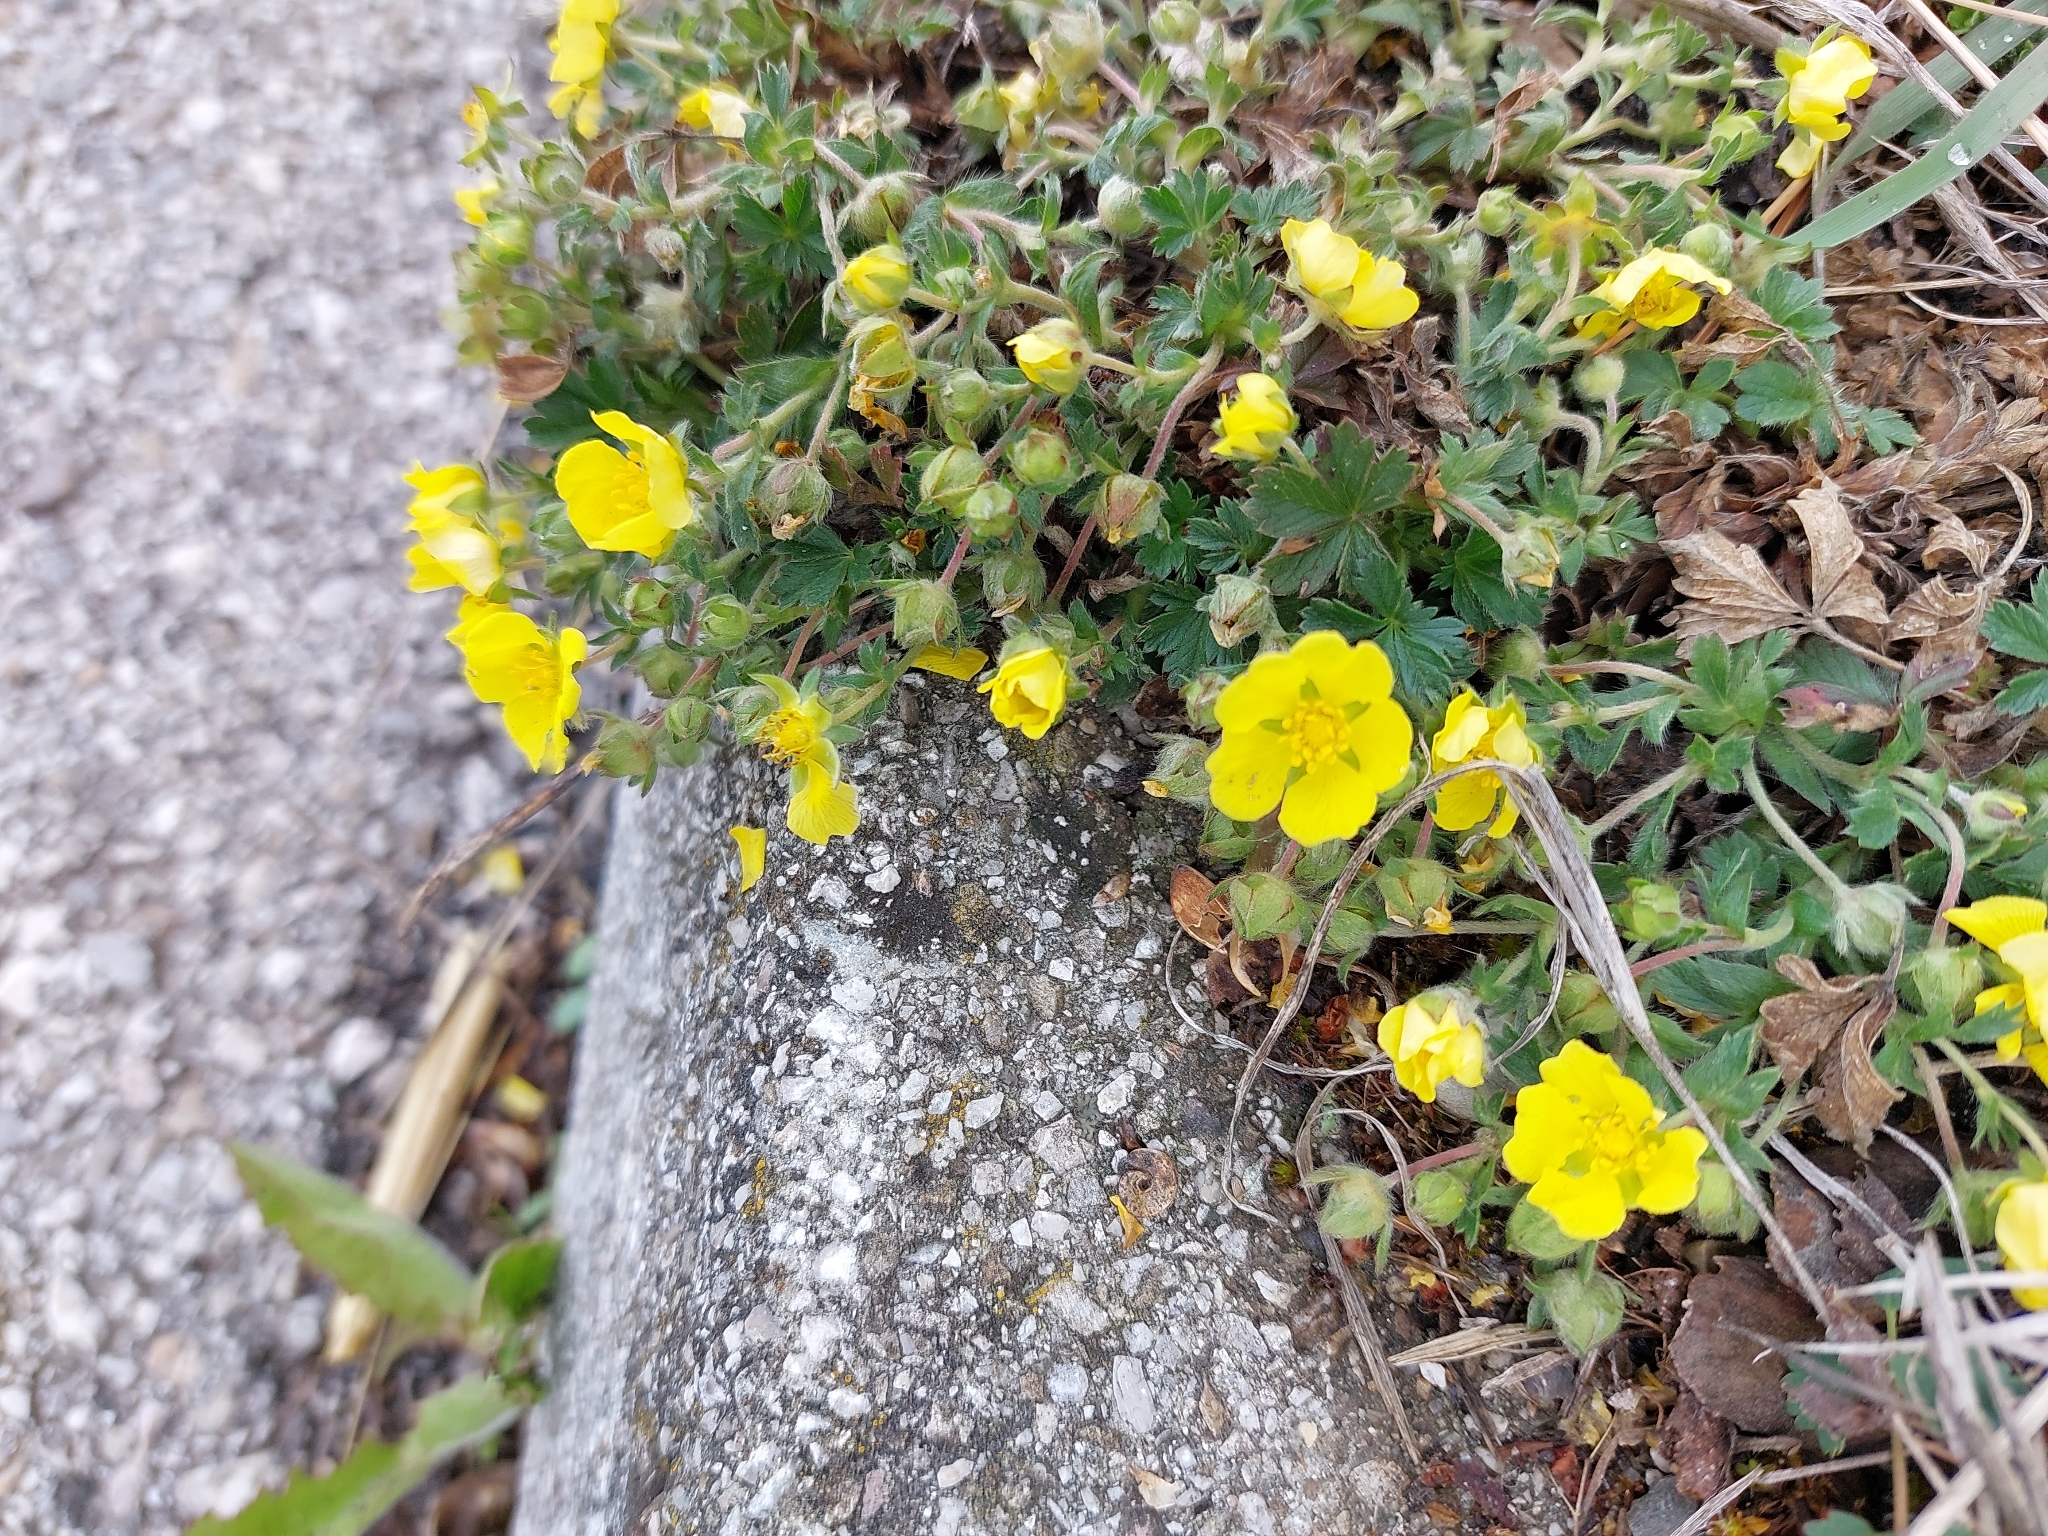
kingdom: Plantae
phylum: Tracheophyta
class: Magnoliopsida
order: Rosales
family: Rosaceae
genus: Potentilla
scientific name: Potentilla verna
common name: Spring cinquefoil
